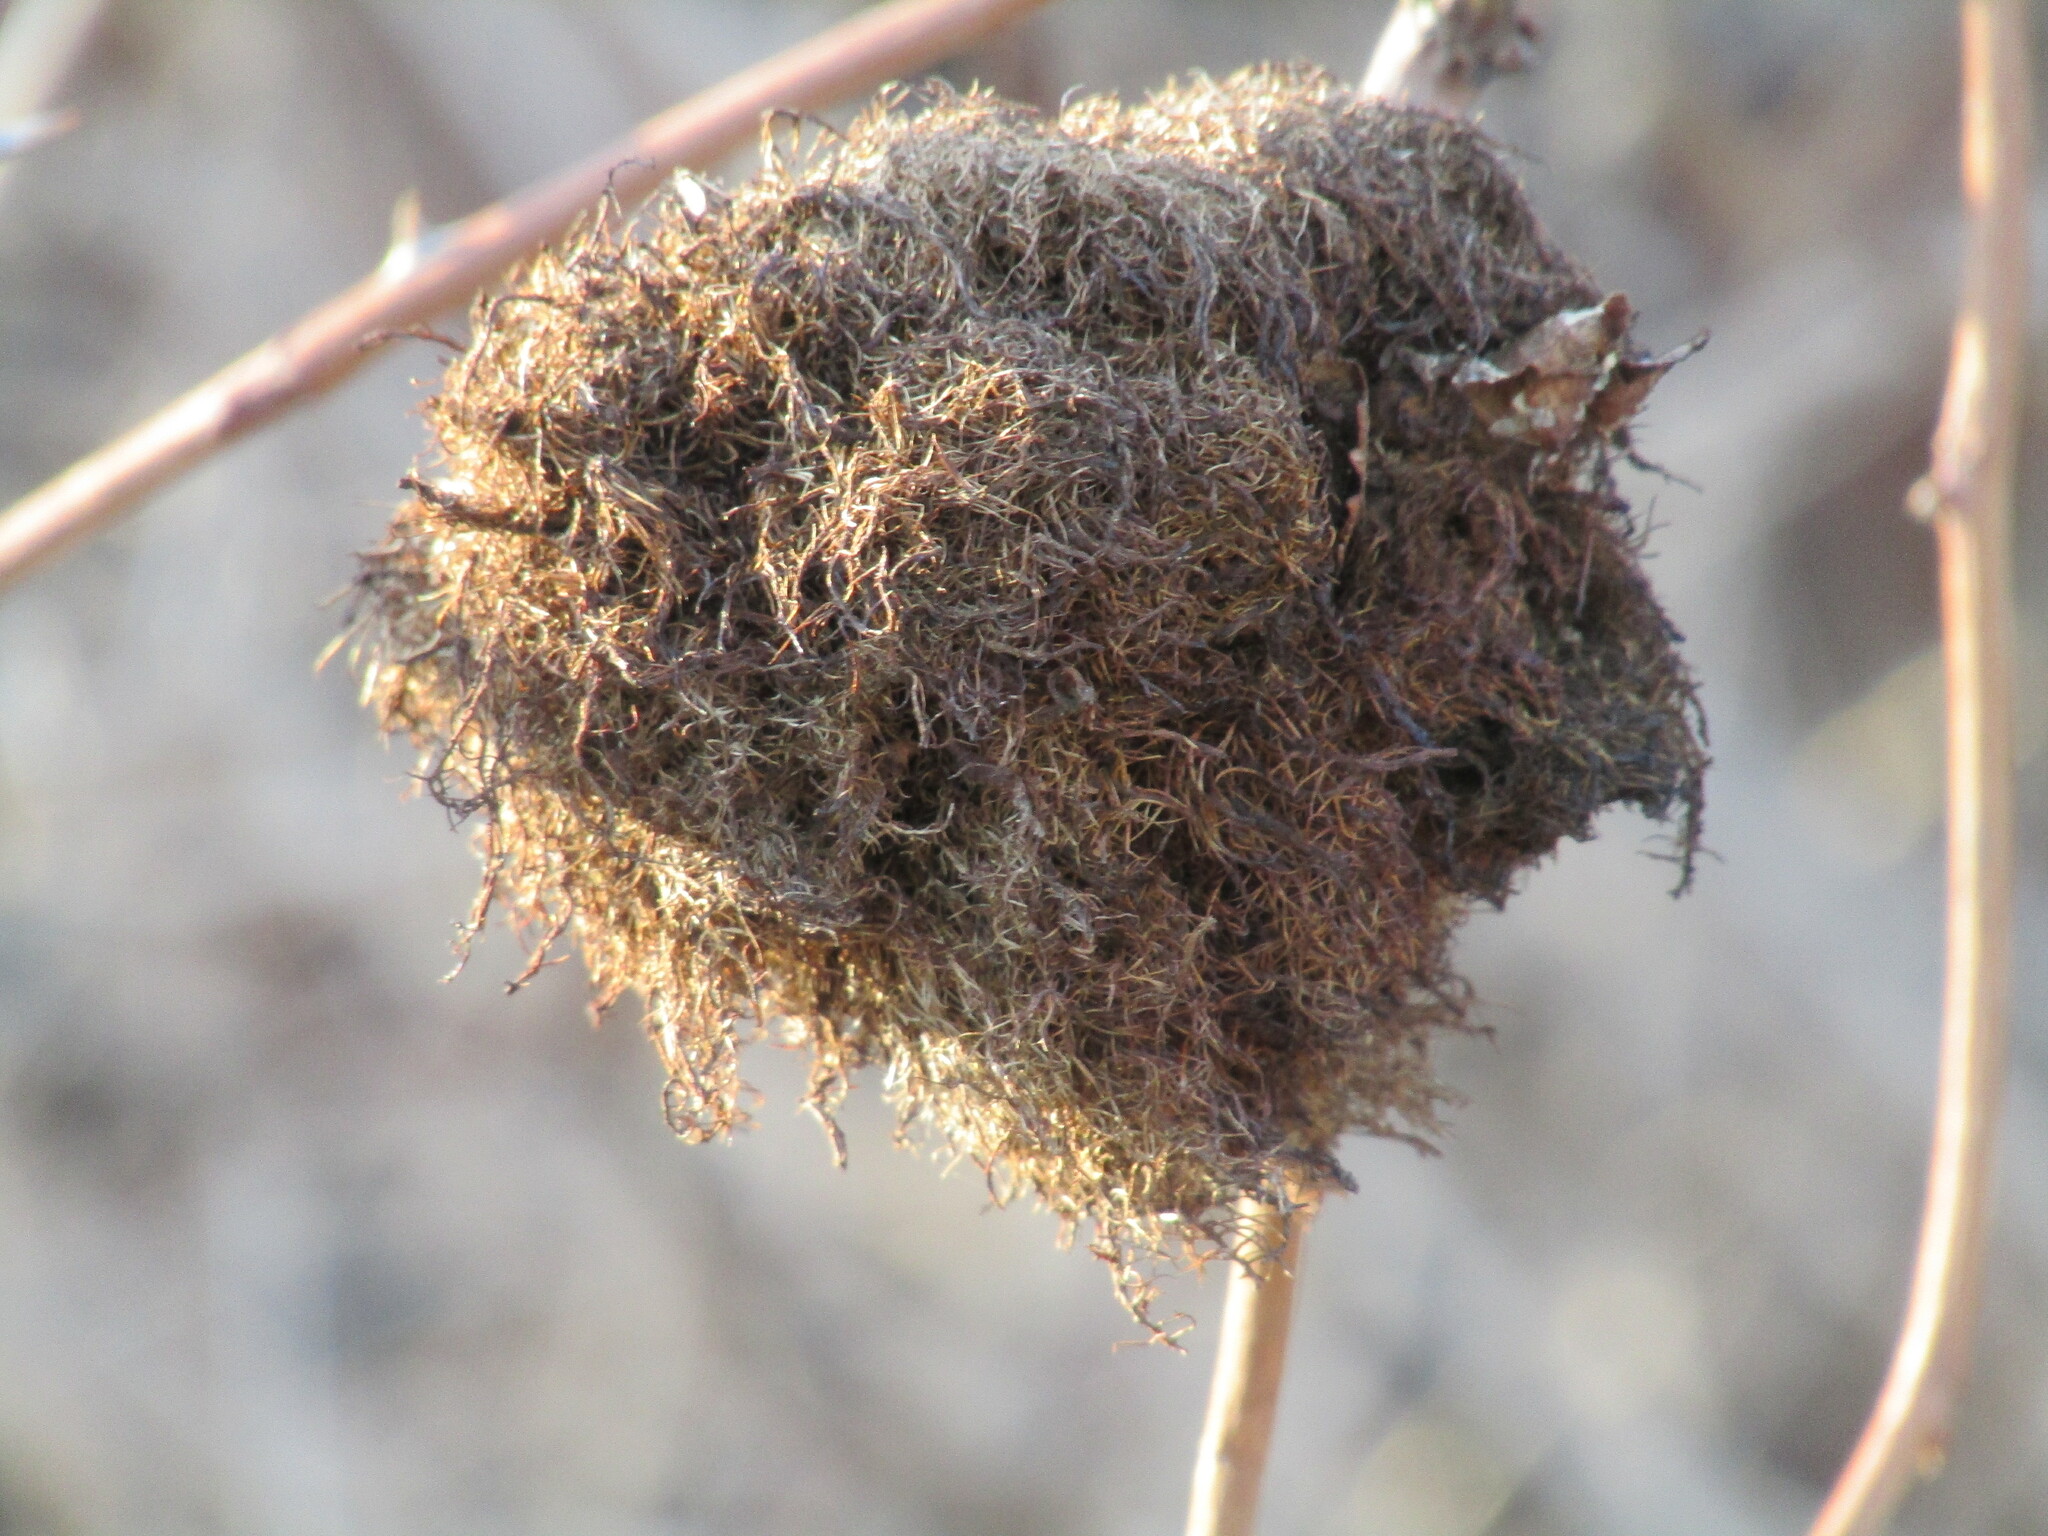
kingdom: Animalia
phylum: Arthropoda
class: Insecta
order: Hymenoptera
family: Cynipidae
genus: Diplolepis
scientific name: Diplolepis rosae
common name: Bedeguar gall
